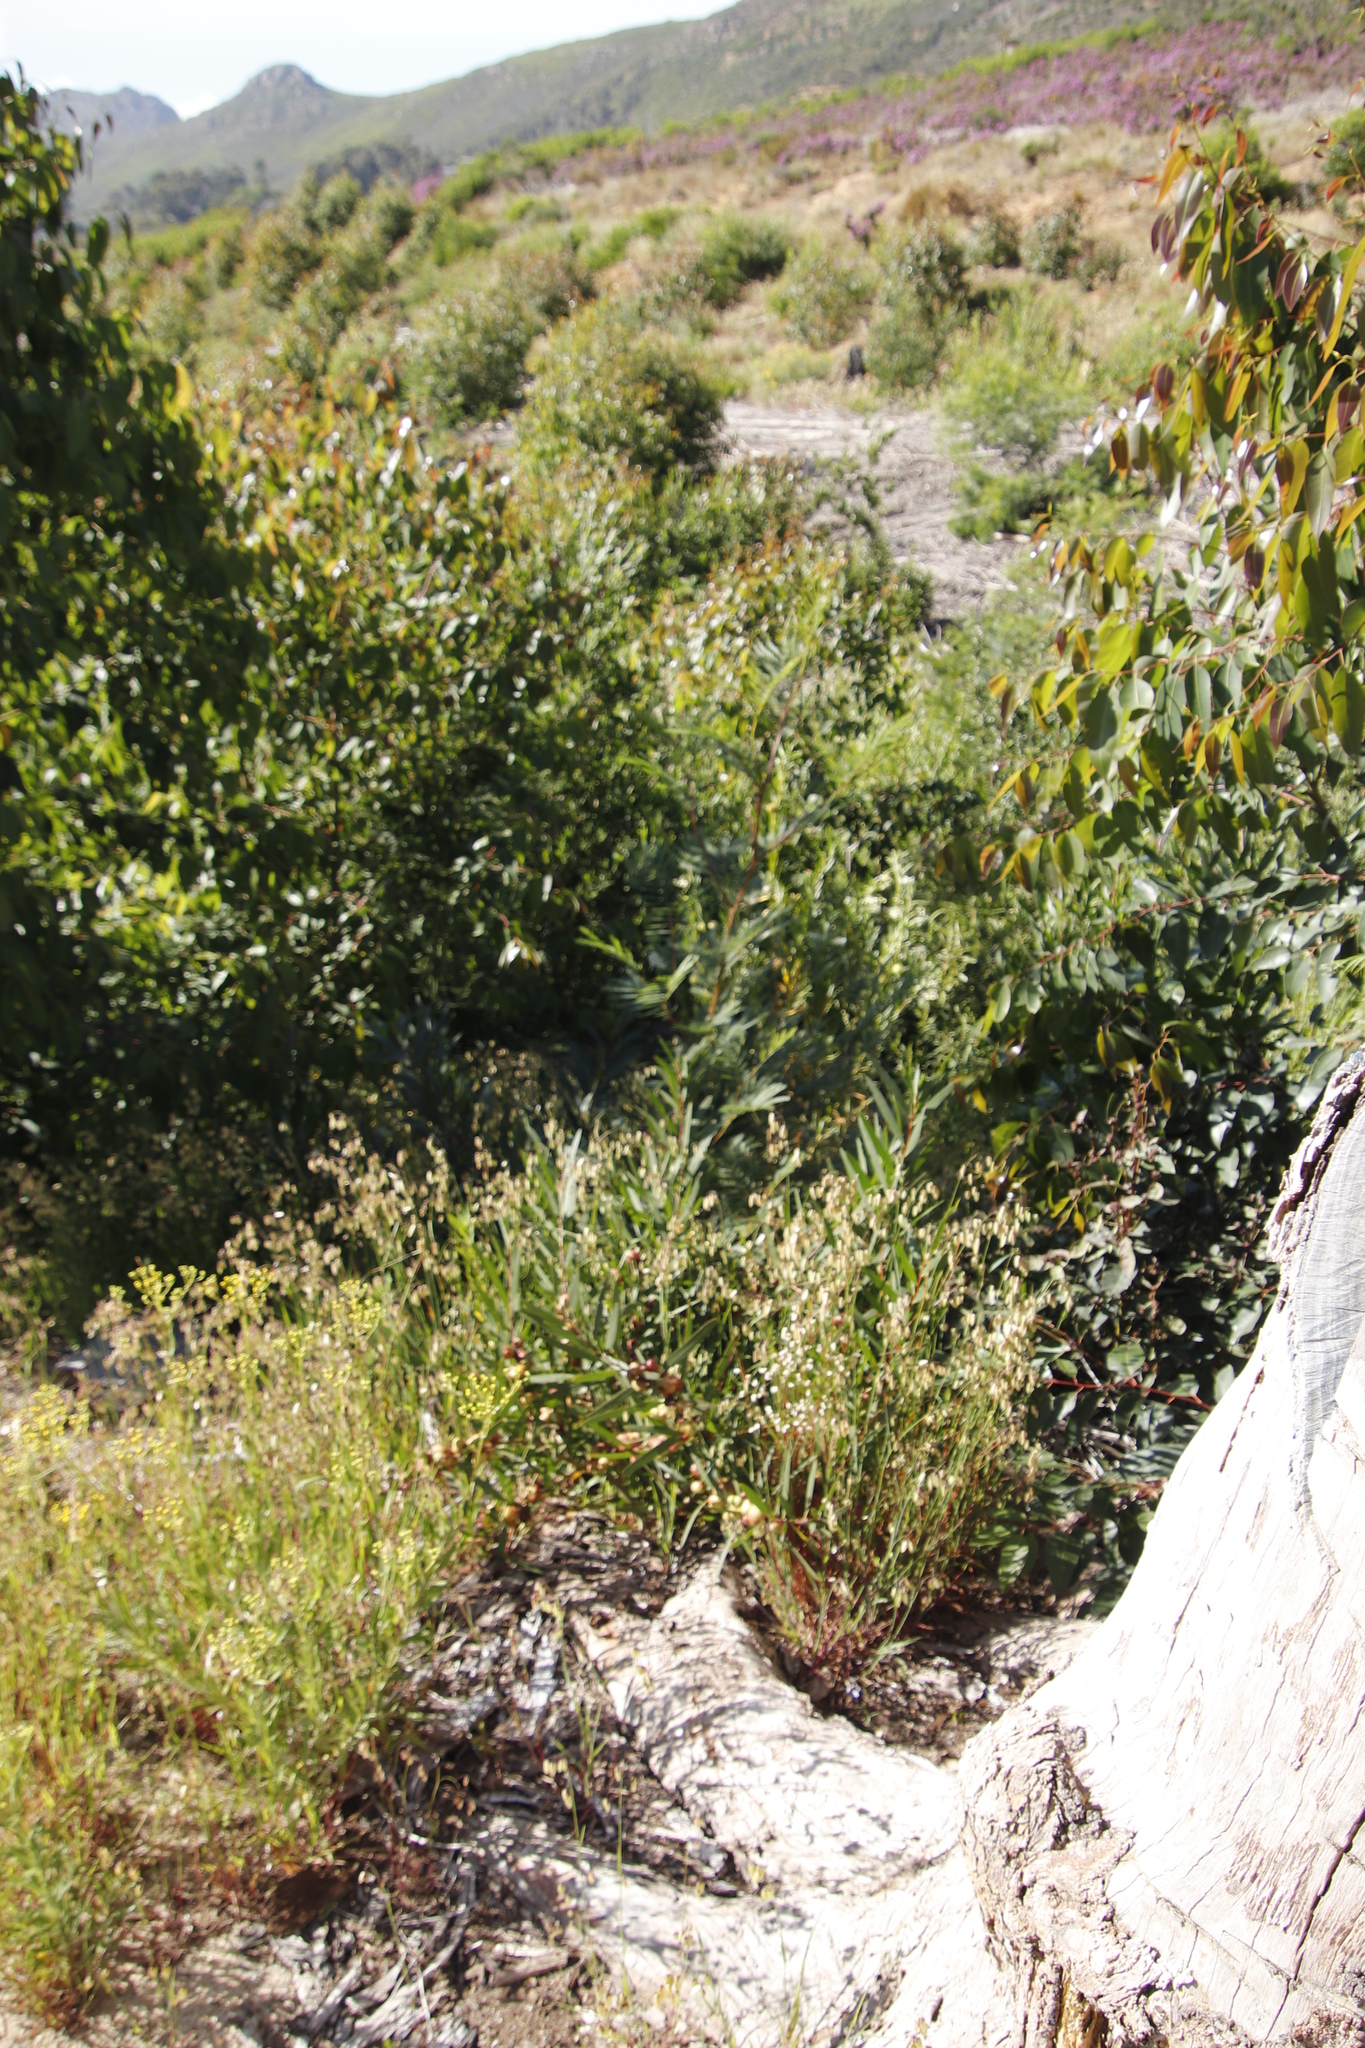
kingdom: Plantae
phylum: Tracheophyta
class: Magnoliopsida
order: Fabales
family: Fabaceae
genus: Acacia
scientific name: Acacia decurrens
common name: Green wattle
